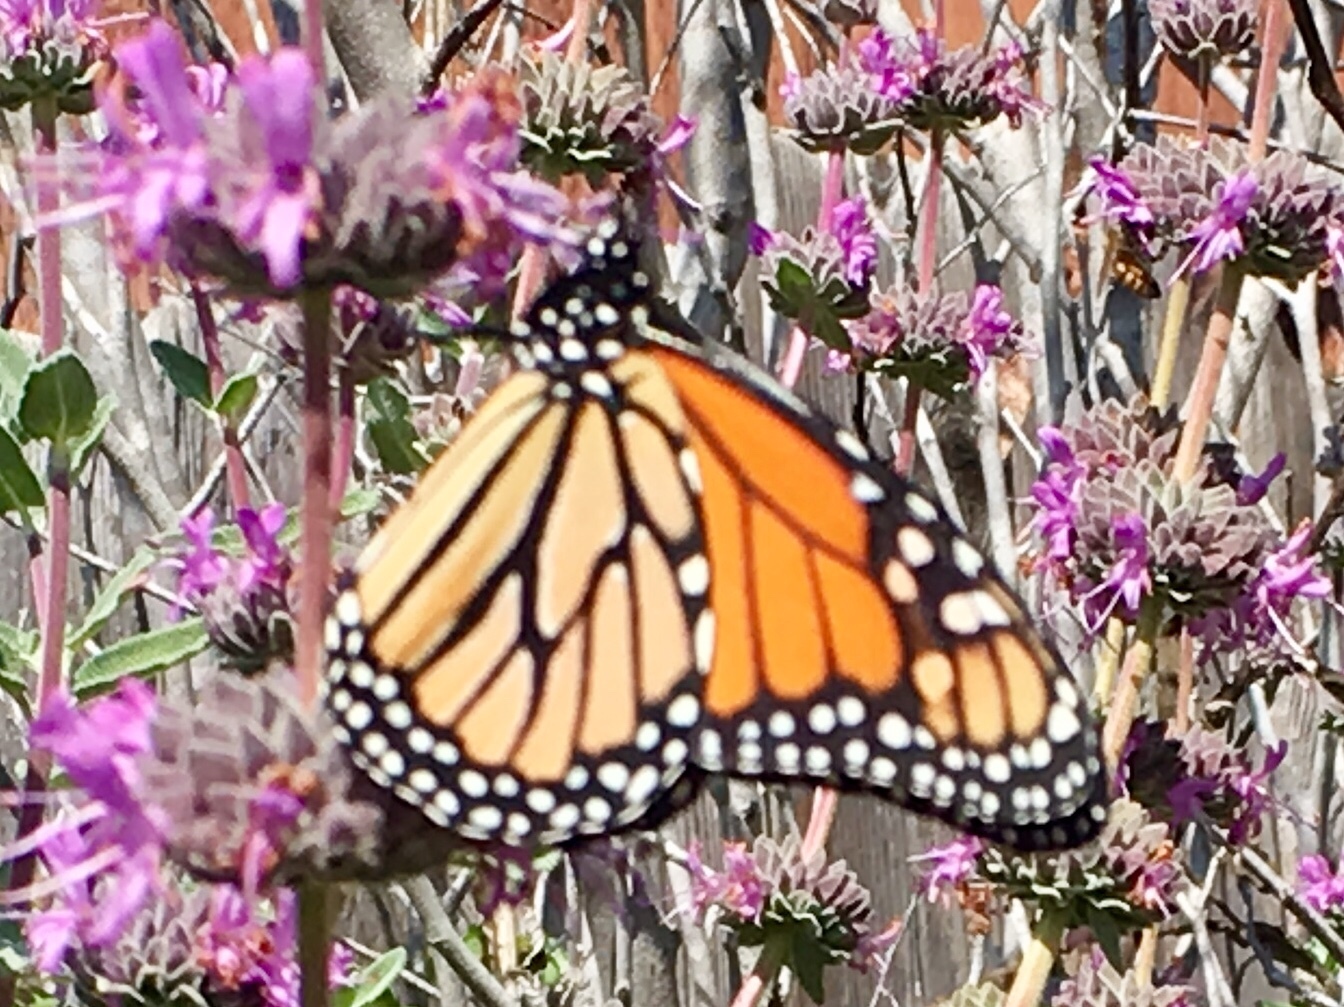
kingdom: Animalia
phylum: Arthropoda
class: Insecta
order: Lepidoptera
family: Nymphalidae
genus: Danaus
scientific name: Danaus plexippus
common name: Monarch
